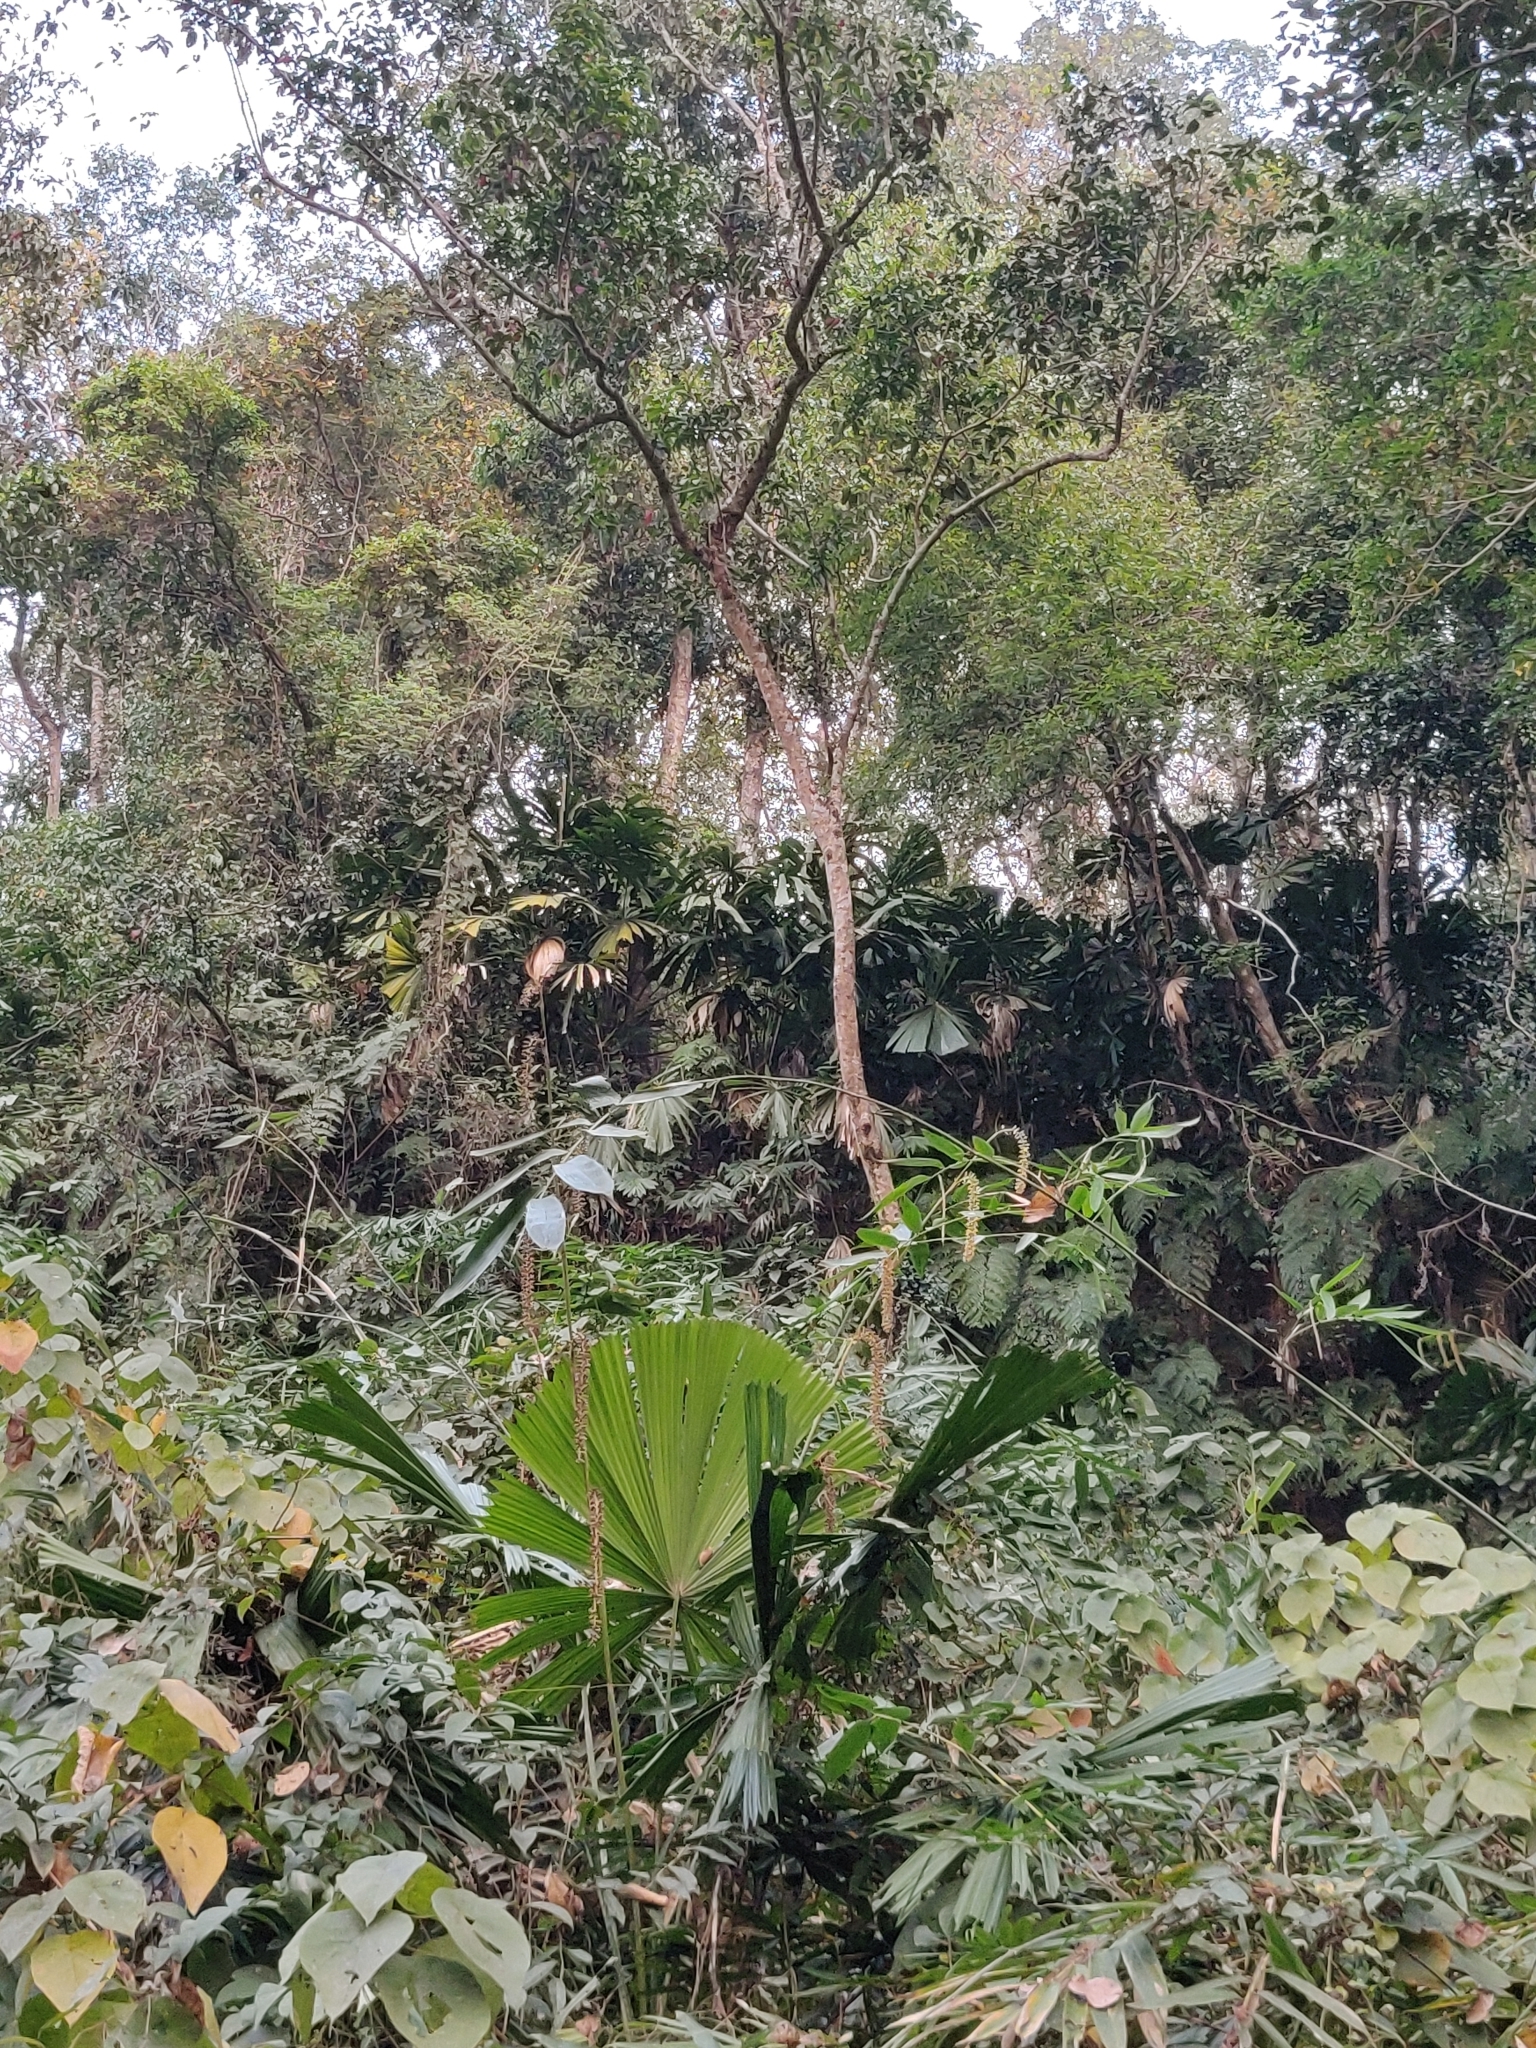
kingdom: Plantae
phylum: Tracheophyta
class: Liliopsida
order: Arecales
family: Arecaceae
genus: Licuala
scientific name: Licuala peltata
